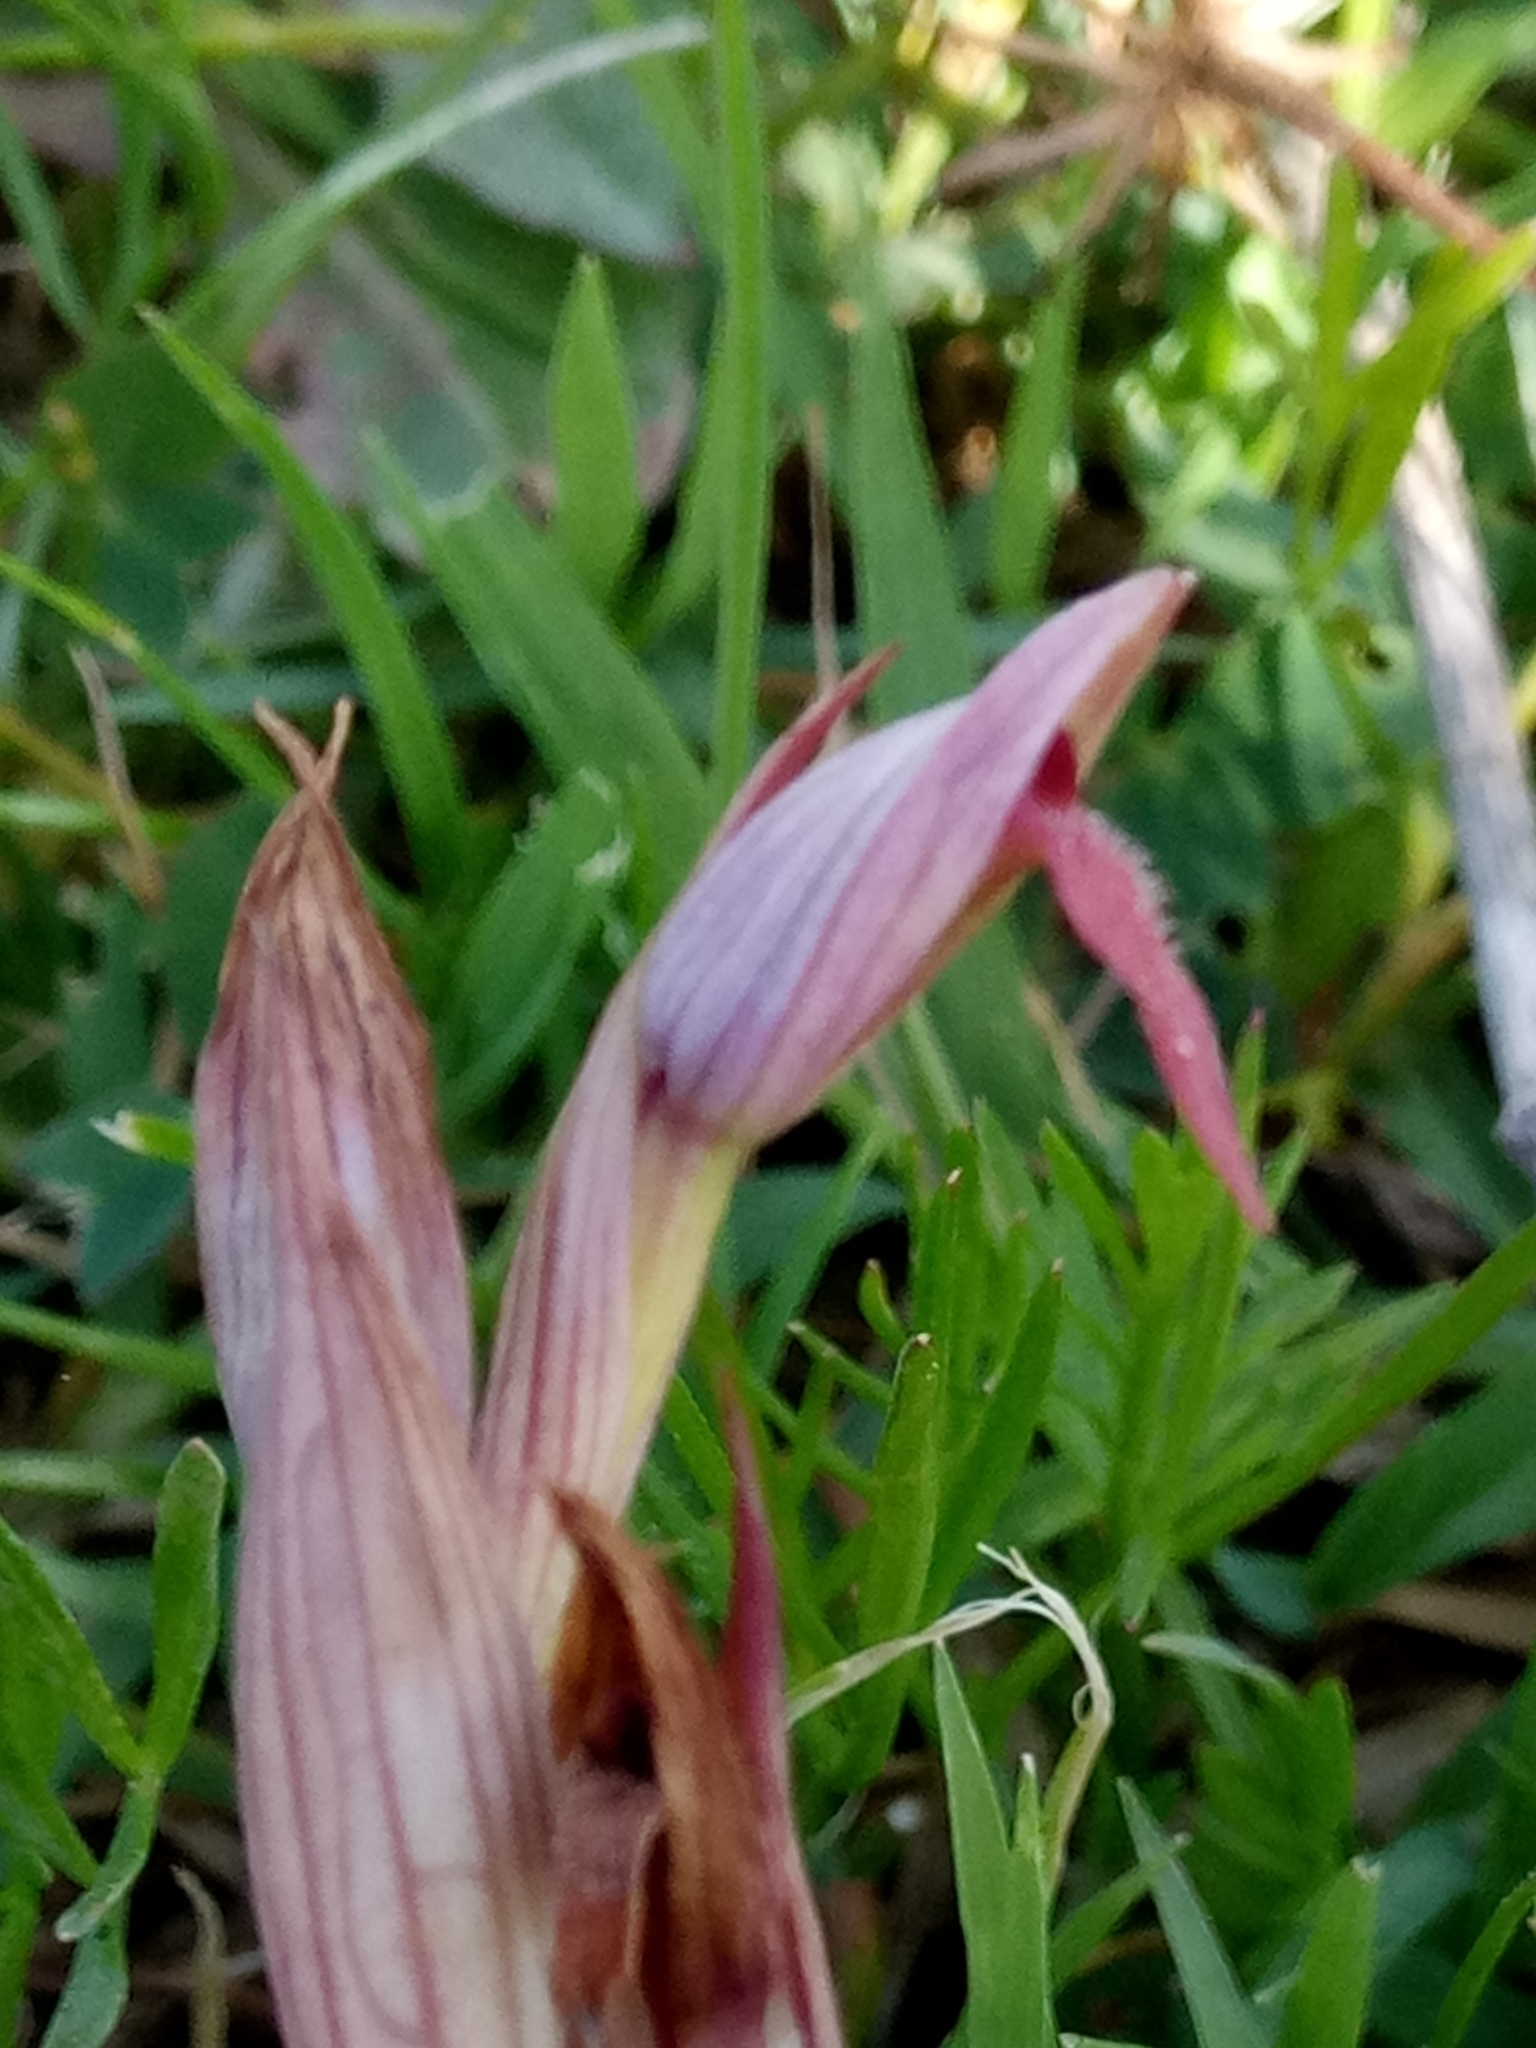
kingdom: Plantae
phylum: Tracheophyta
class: Liliopsida
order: Asparagales
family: Orchidaceae
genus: Serapias
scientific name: Serapias parviflora
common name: Small-flowered tongue-orchid
